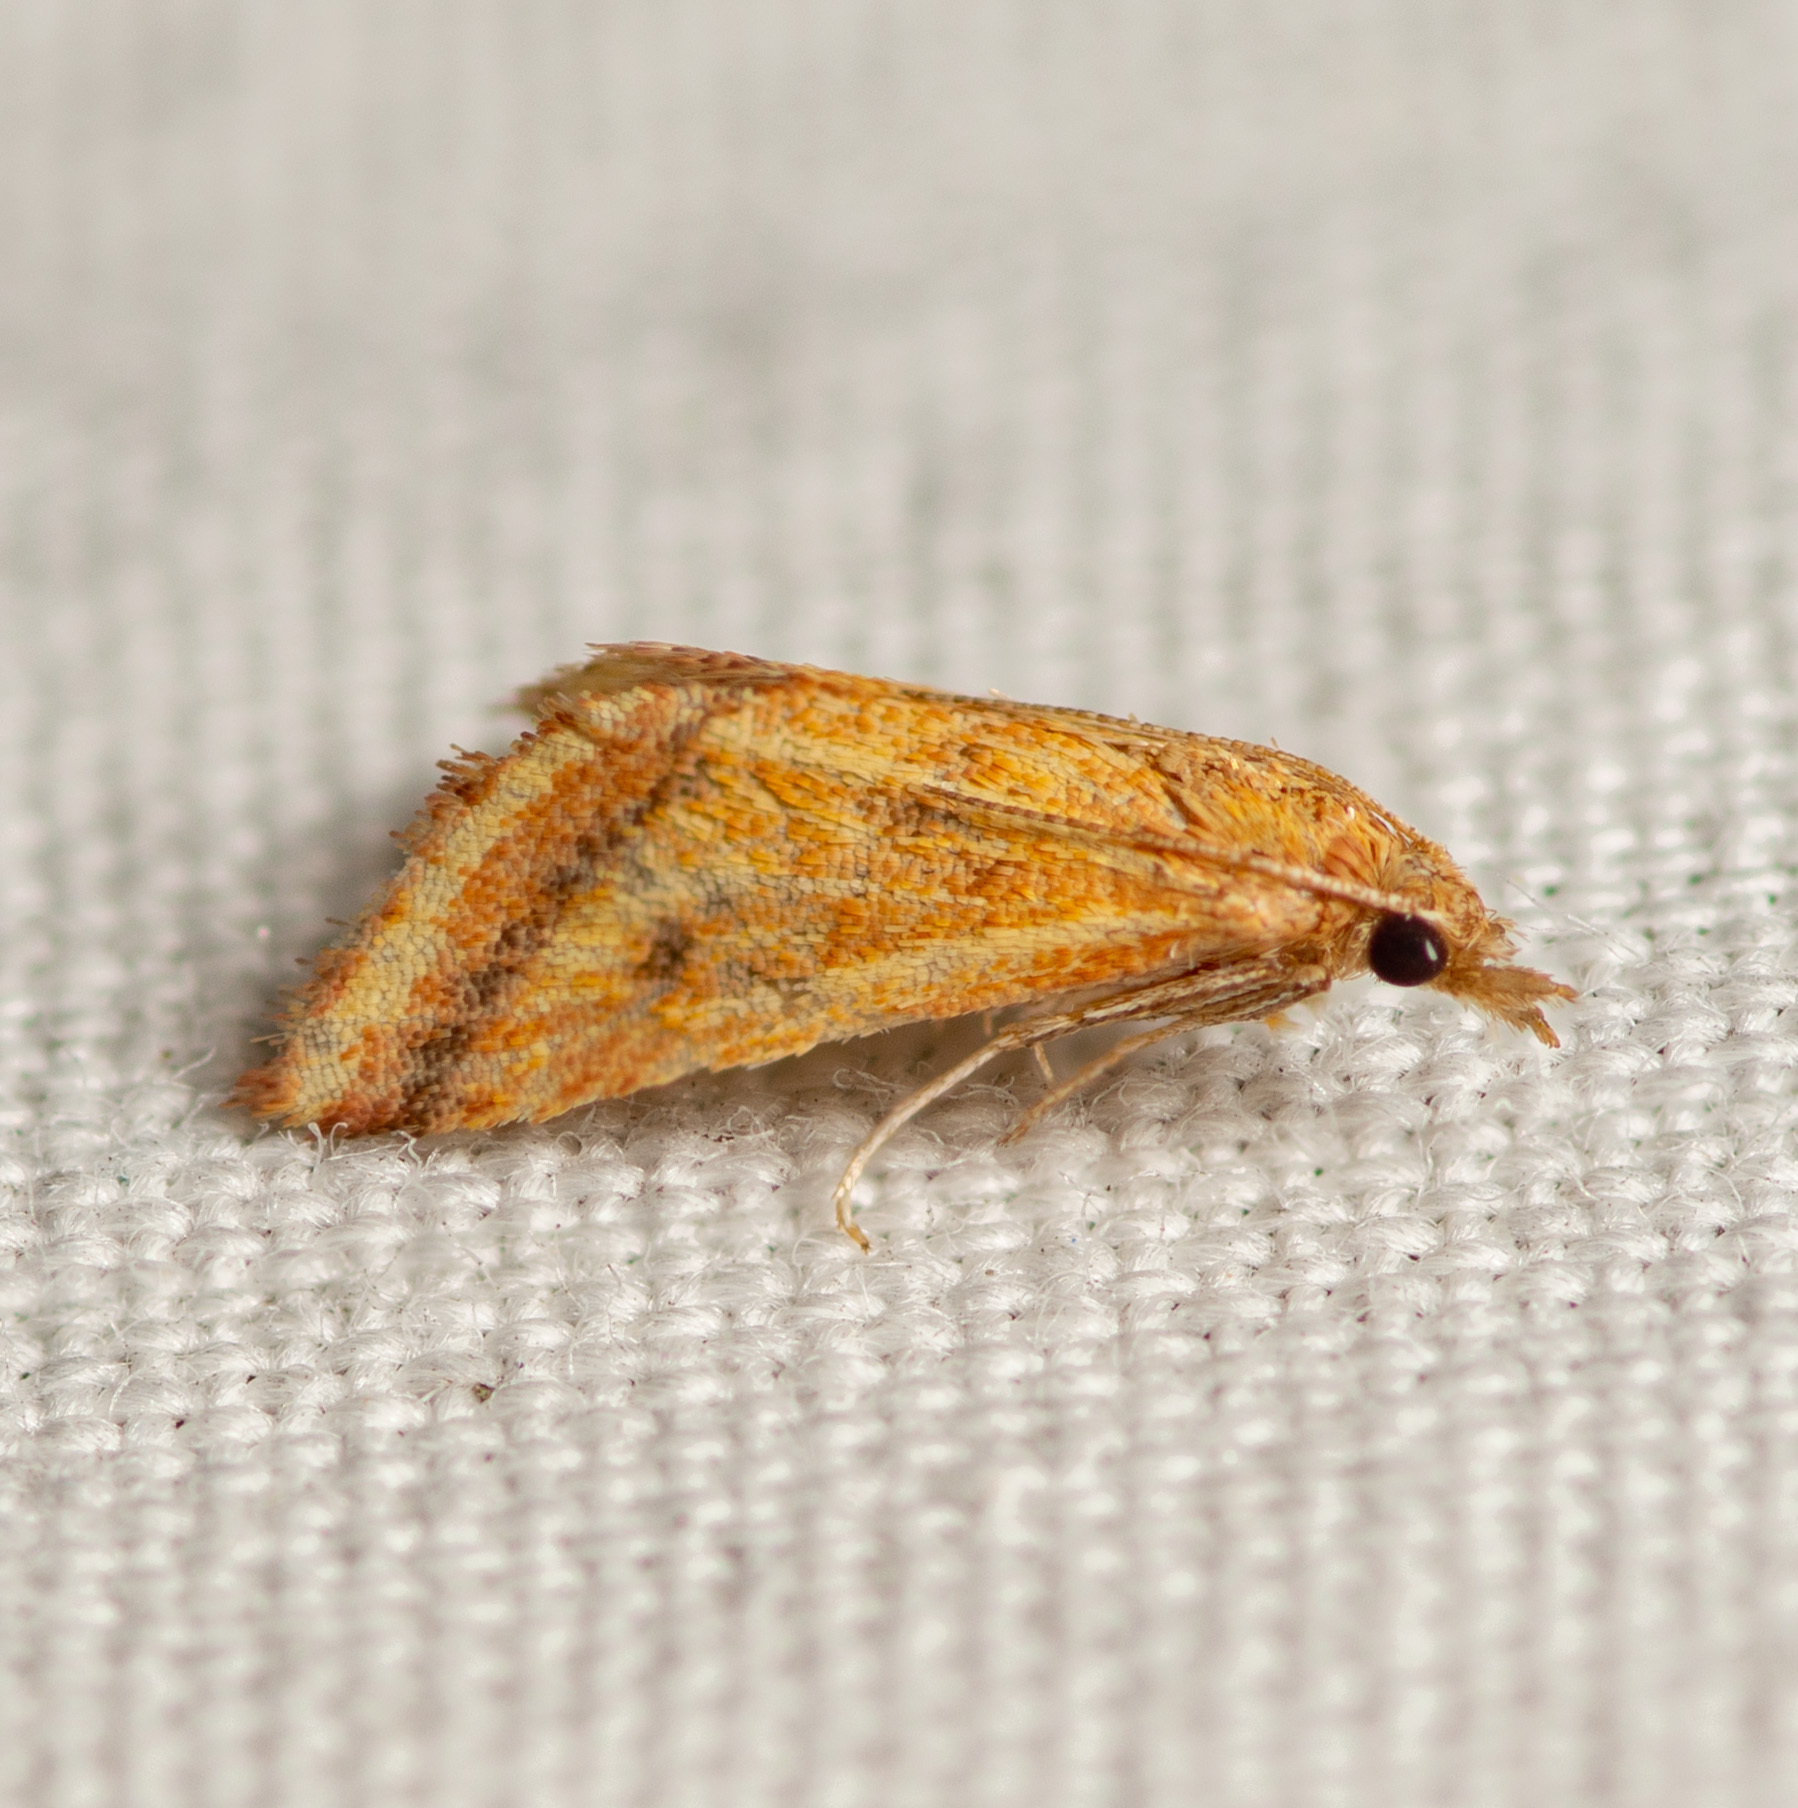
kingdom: Animalia
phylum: Arthropoda
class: Insecta
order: Lepidoptera
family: Crambidae
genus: Microtheoris
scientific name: Microtheoris ophionalis
